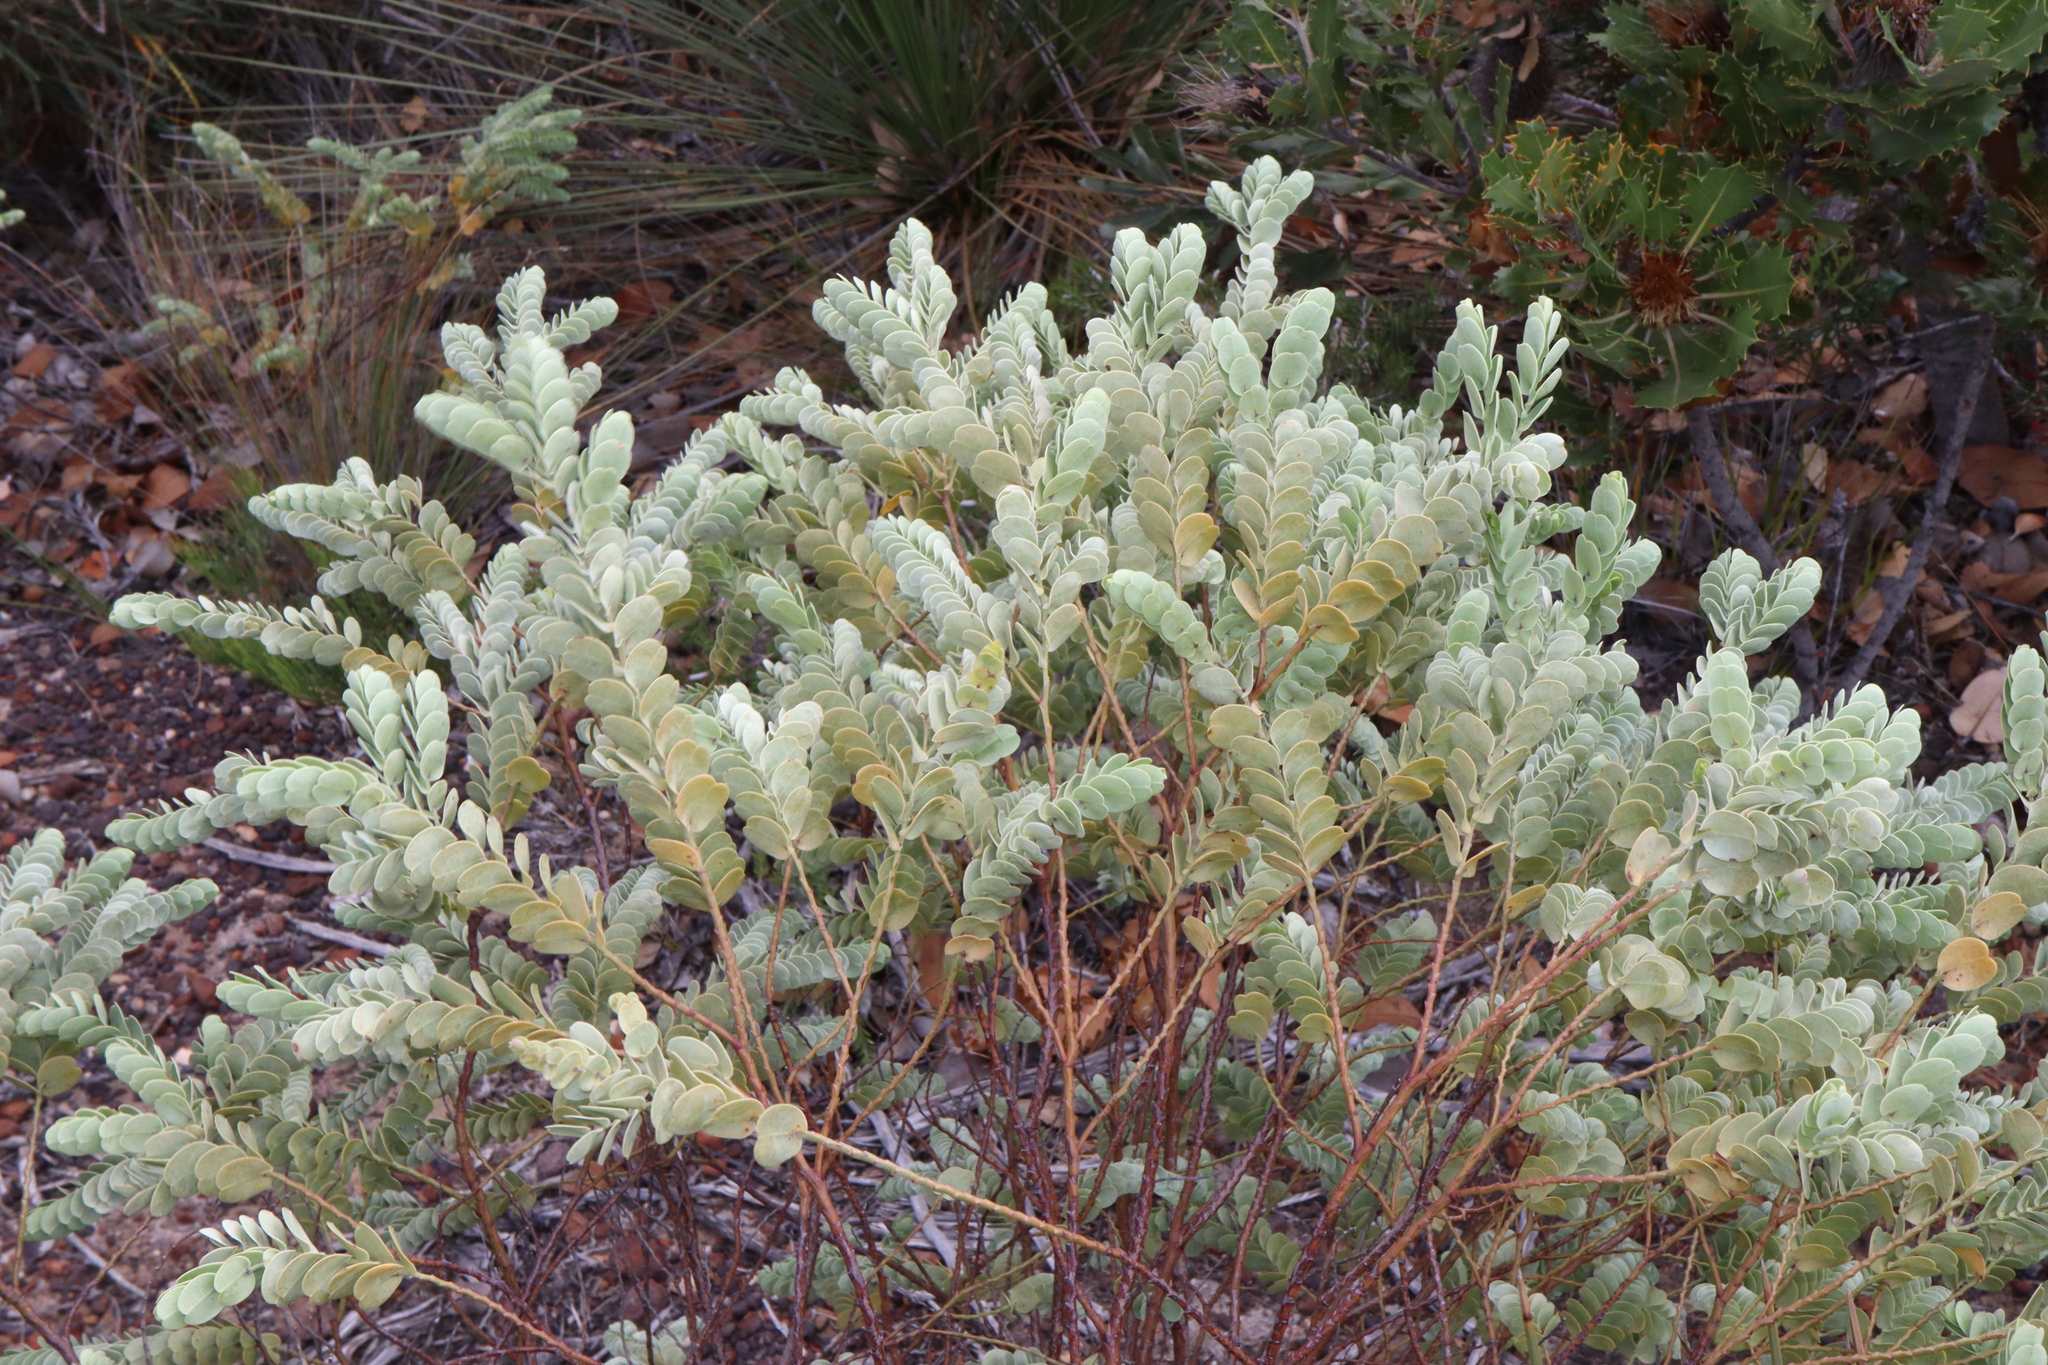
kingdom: Plantae
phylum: Tracheophyta
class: Magnoliopsida
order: Santalales
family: Olacaceae
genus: Olax
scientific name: Olax phyllanthi
